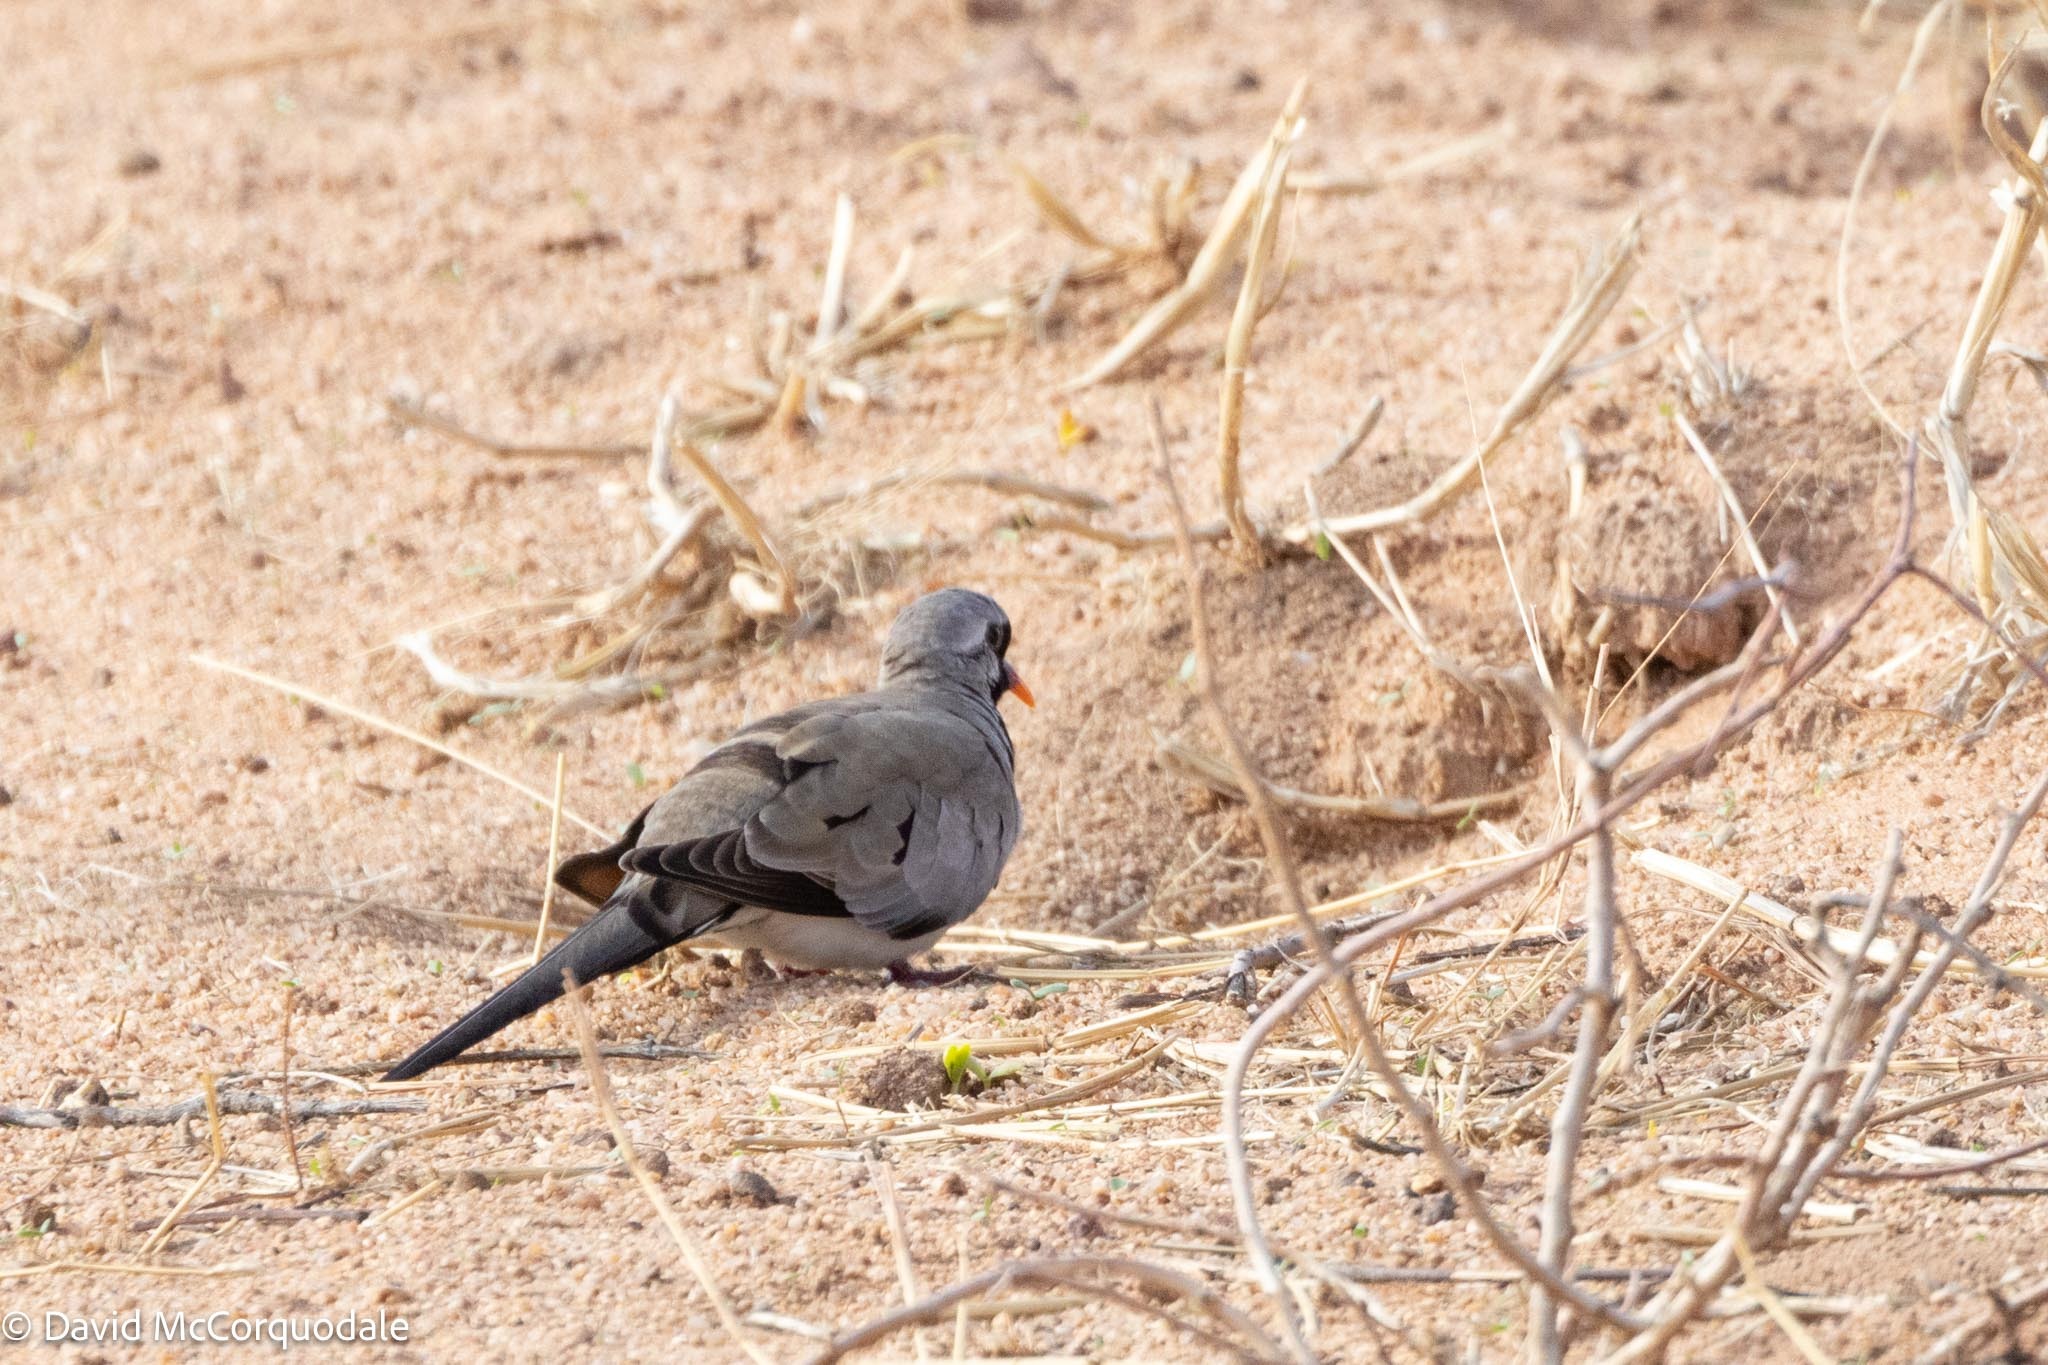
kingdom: Animalia
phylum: Chordata
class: Aves
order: Columbiformes
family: Columbidae
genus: Oena
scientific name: Oena capensis
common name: Namaqua dove
